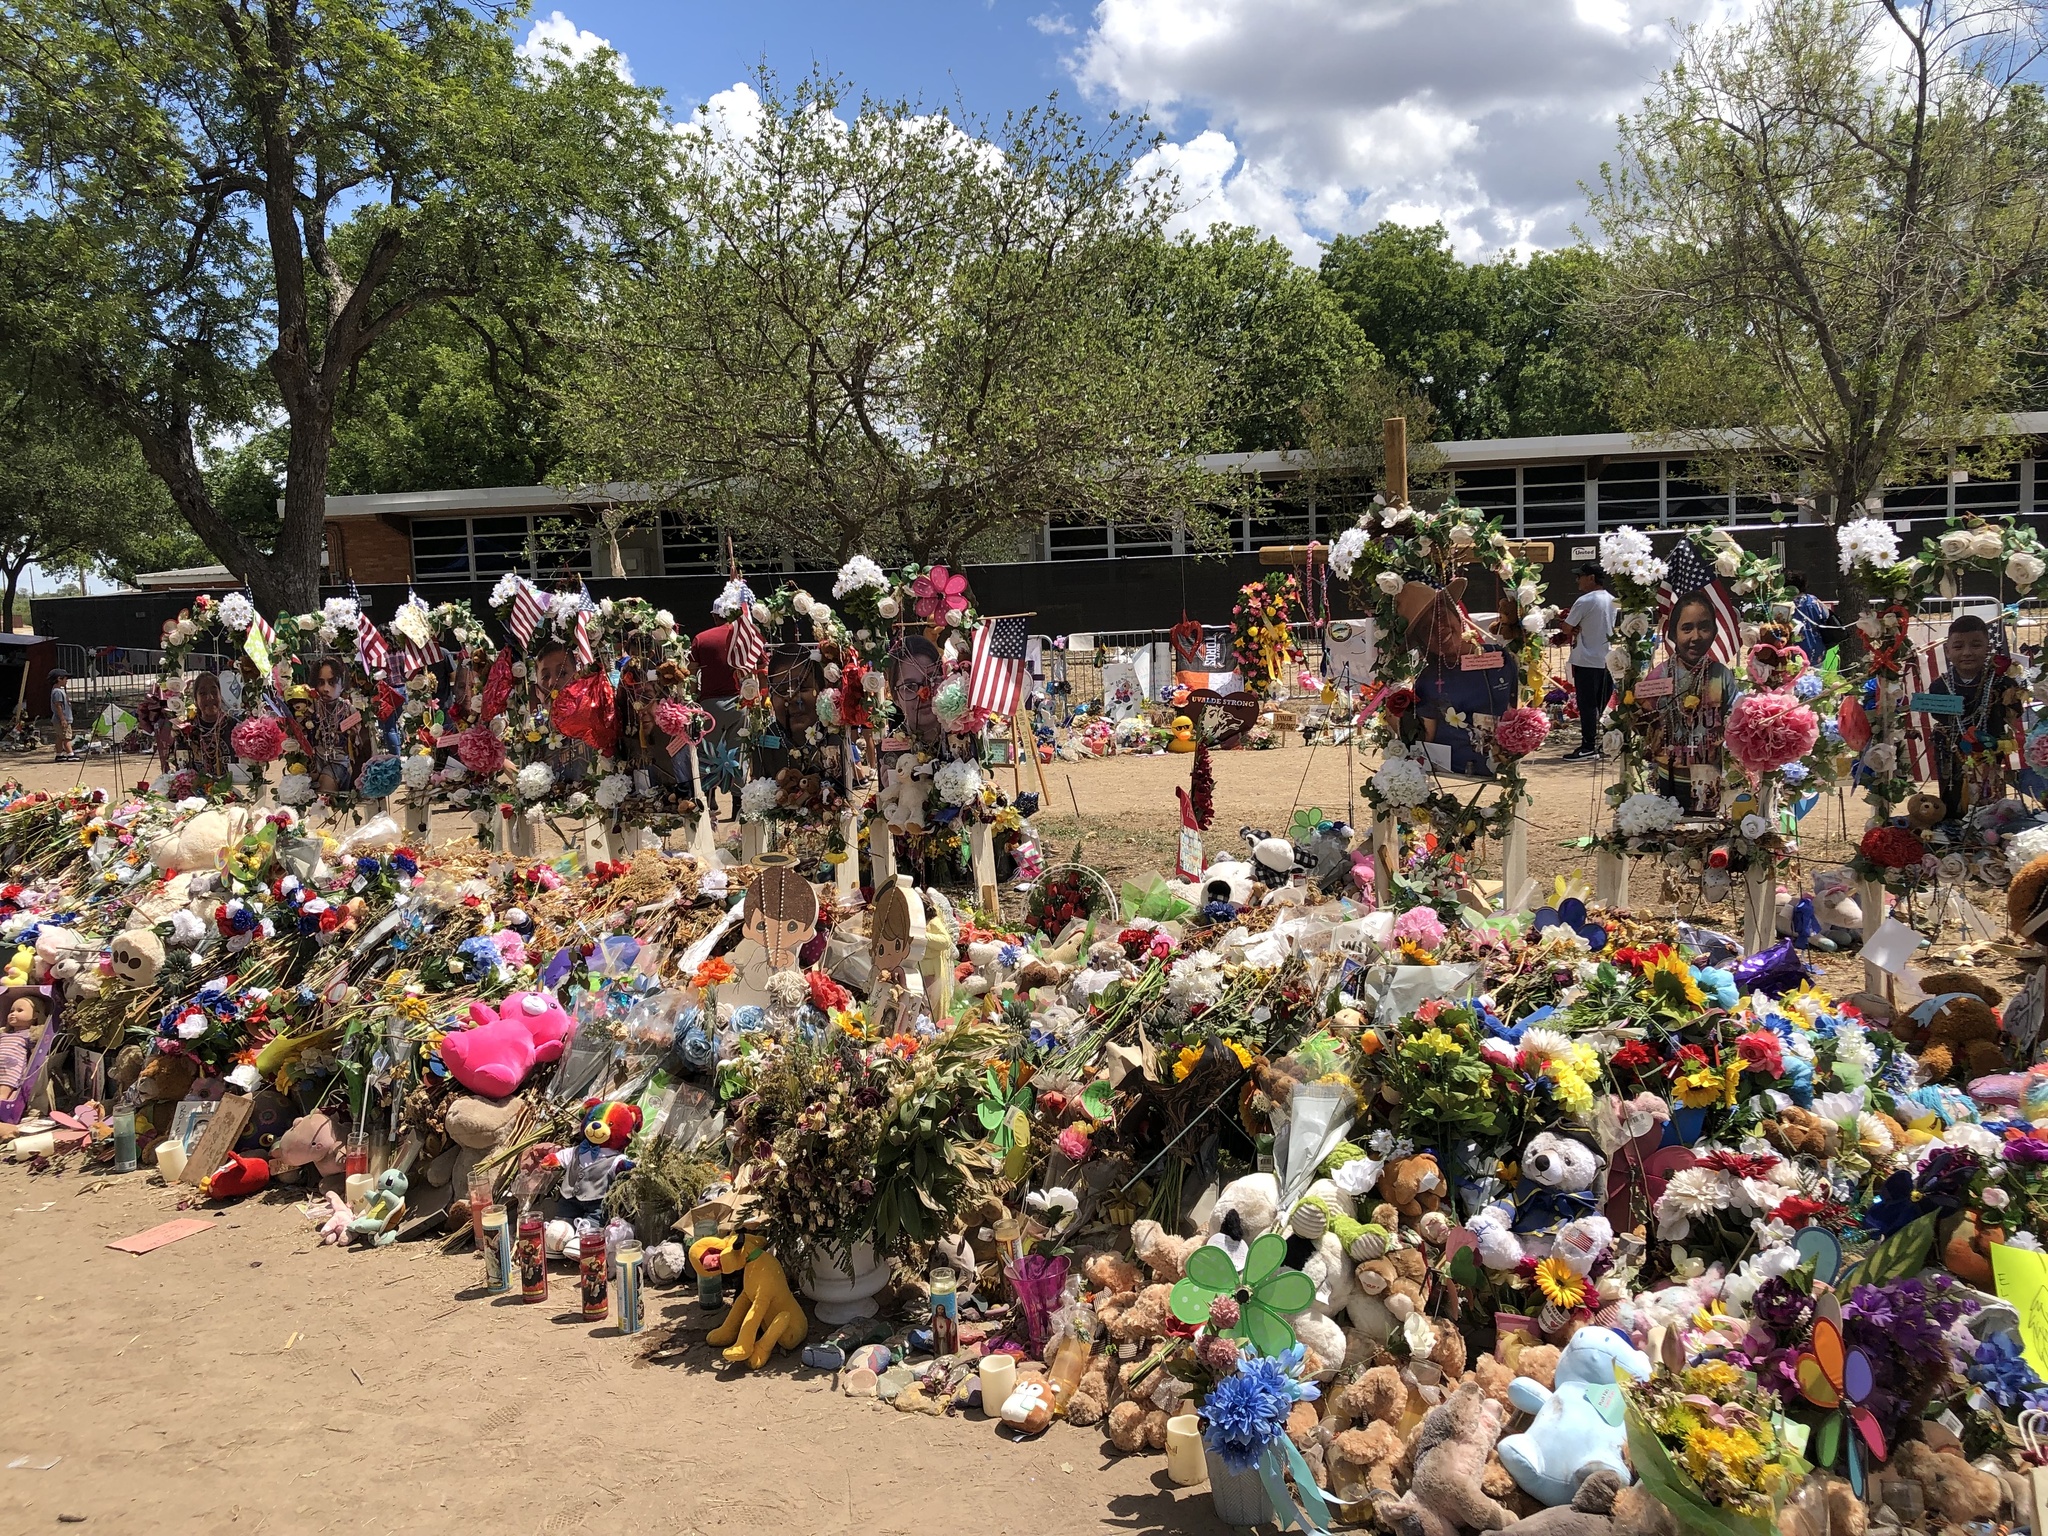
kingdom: Plantae
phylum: Tracheophyta
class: Magnoliopsida
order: Lamiales
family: Acanthaceae
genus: Justicia
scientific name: Justicia pilosella
